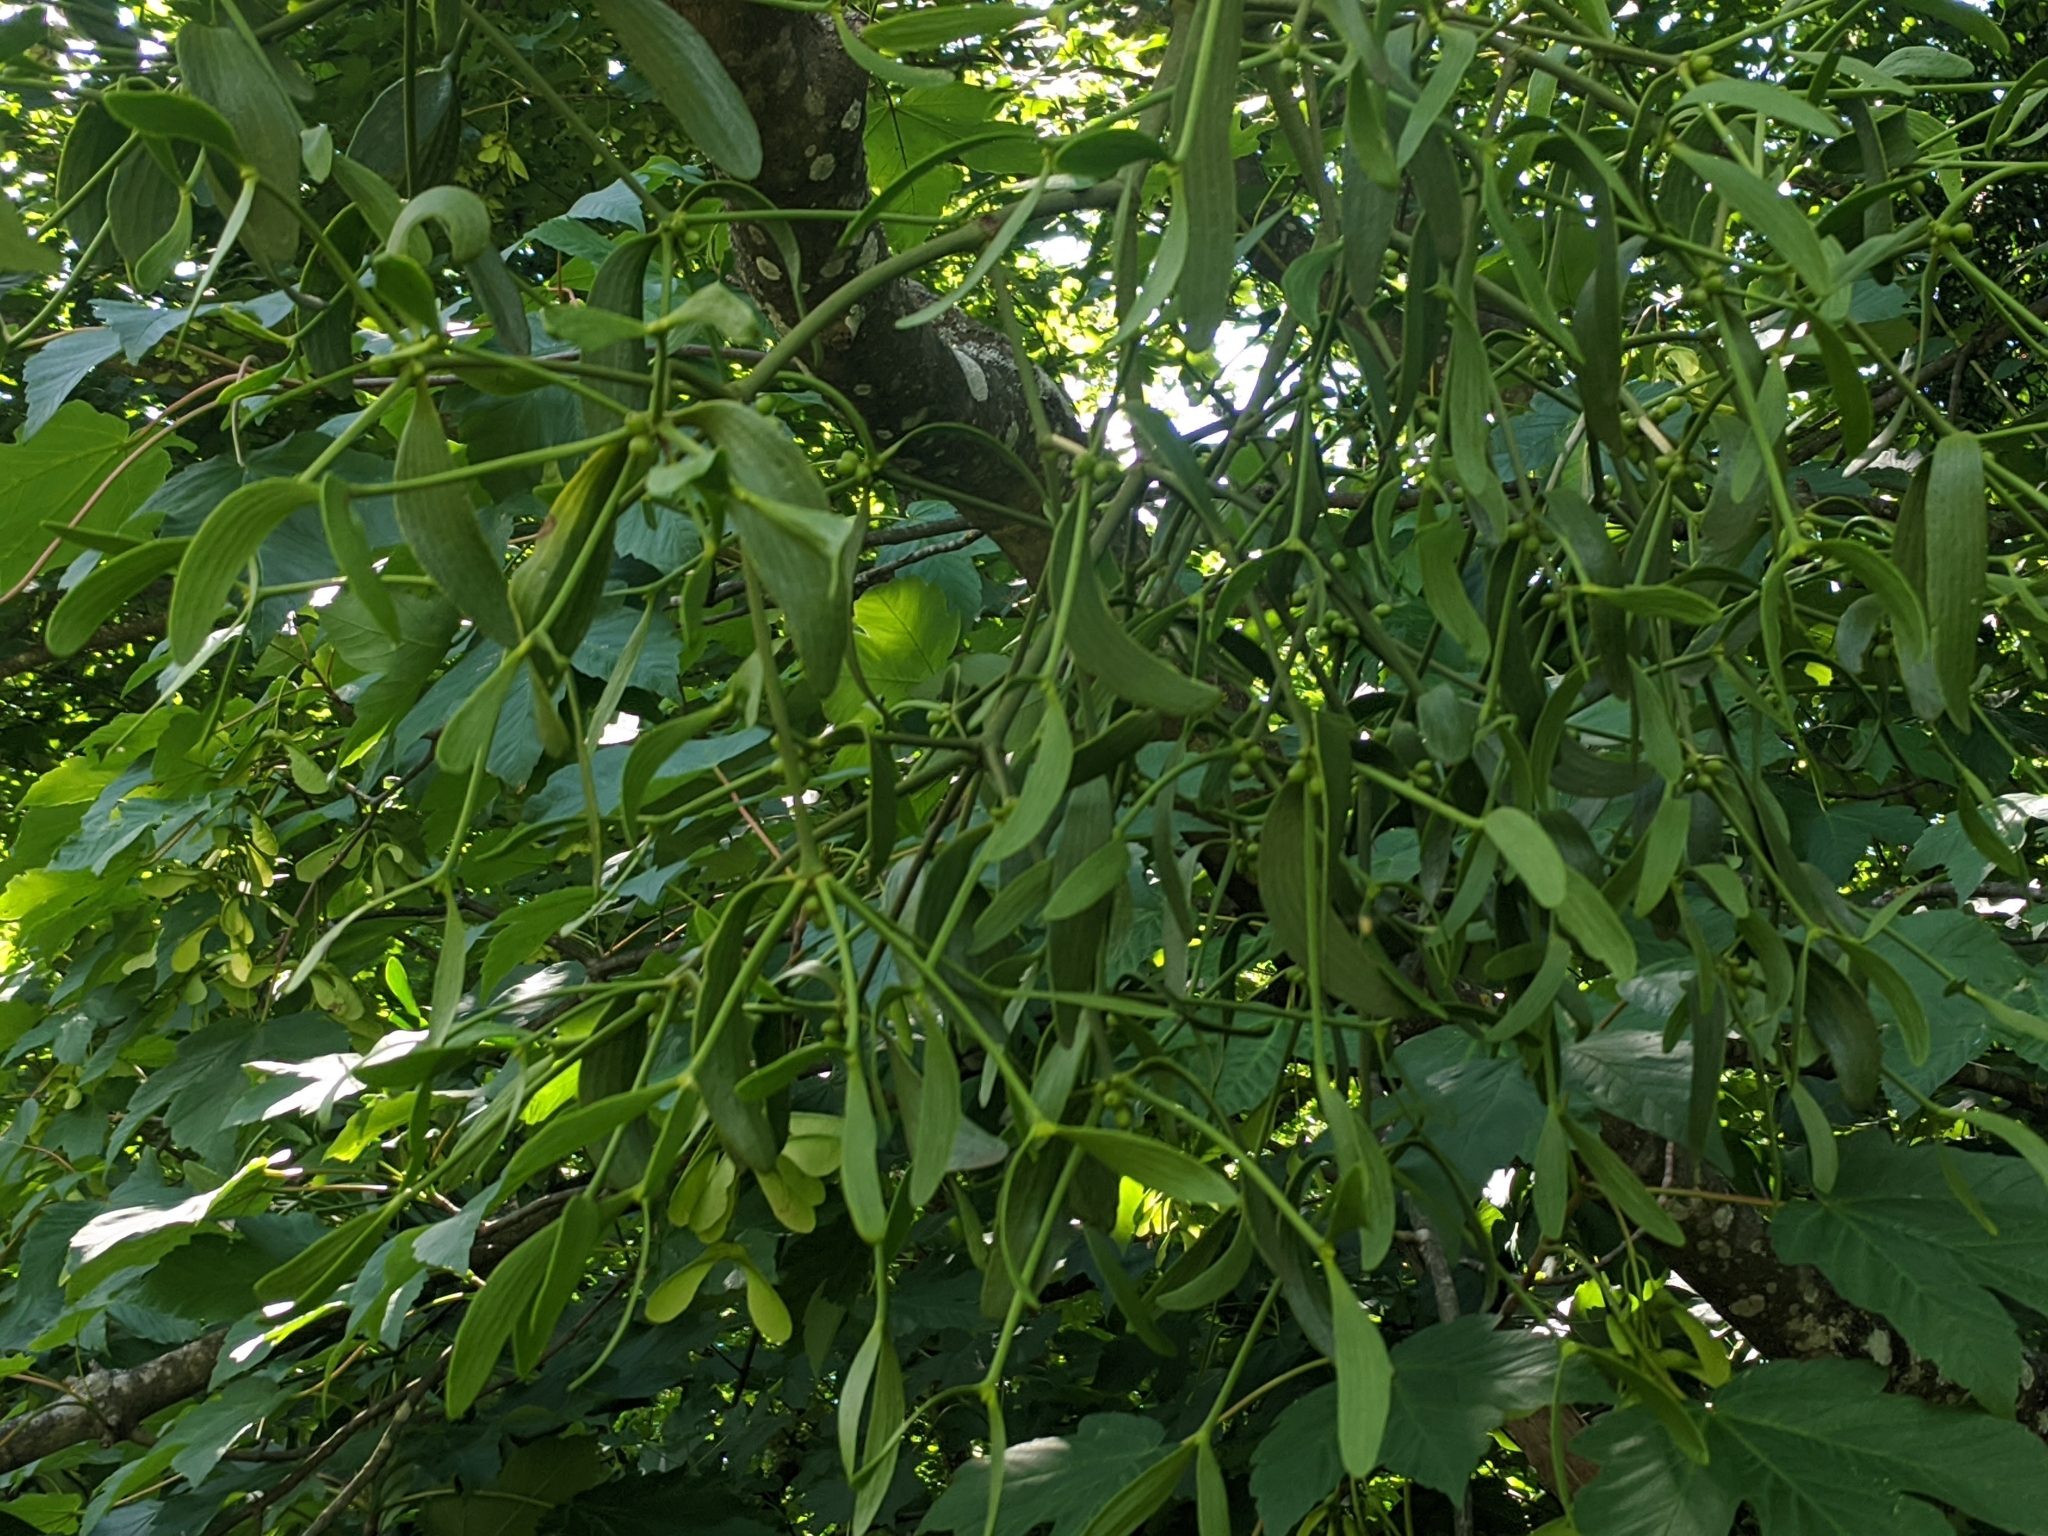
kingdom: Plantae
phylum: Tracheophyta
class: Magnoliopsida
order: Santalales
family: Viscaceae
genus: Viscum
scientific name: Viscum album
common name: Mistletoe
